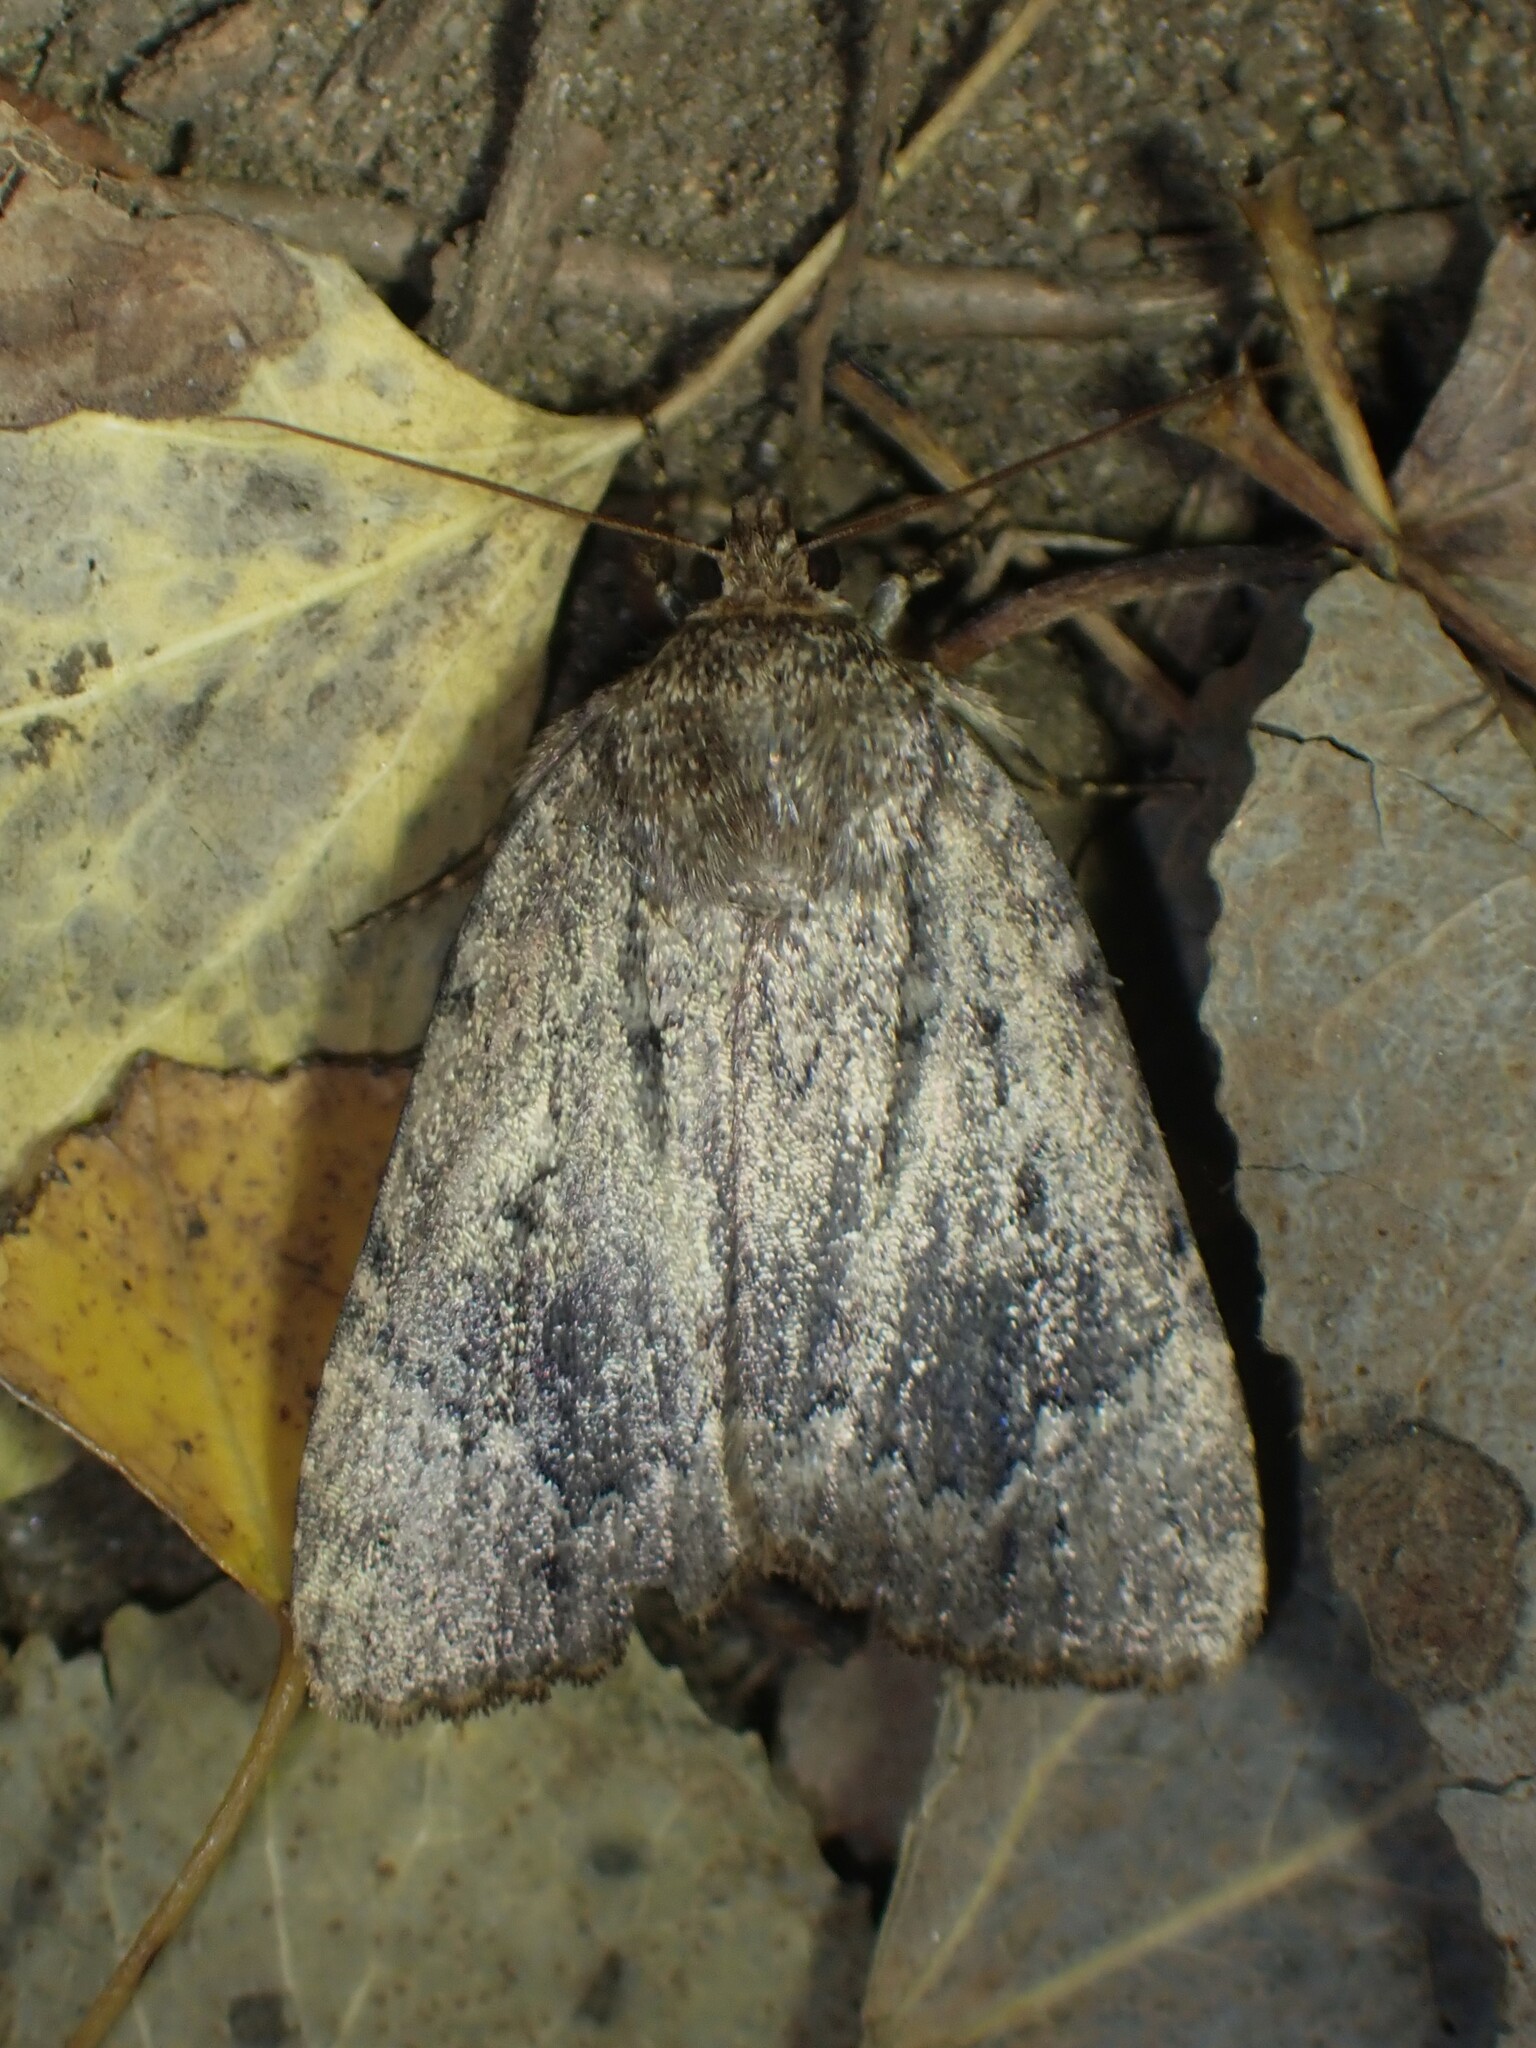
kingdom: Animalia
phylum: Arthropoda
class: Insecta
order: Lepidoptera
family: Noctuidae
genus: Amphipyra
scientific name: Amphipyra pyramidoides
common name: American copper underwing
